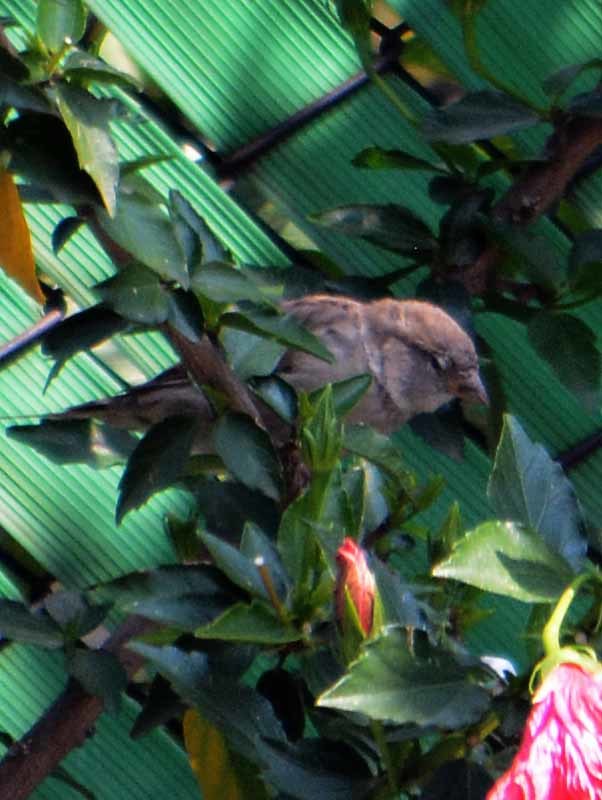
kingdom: Animalia
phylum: Chordata
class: Aves
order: Passeriformes
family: Passeridae
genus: Passer
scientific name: Passer domesticus
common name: House sparrow
